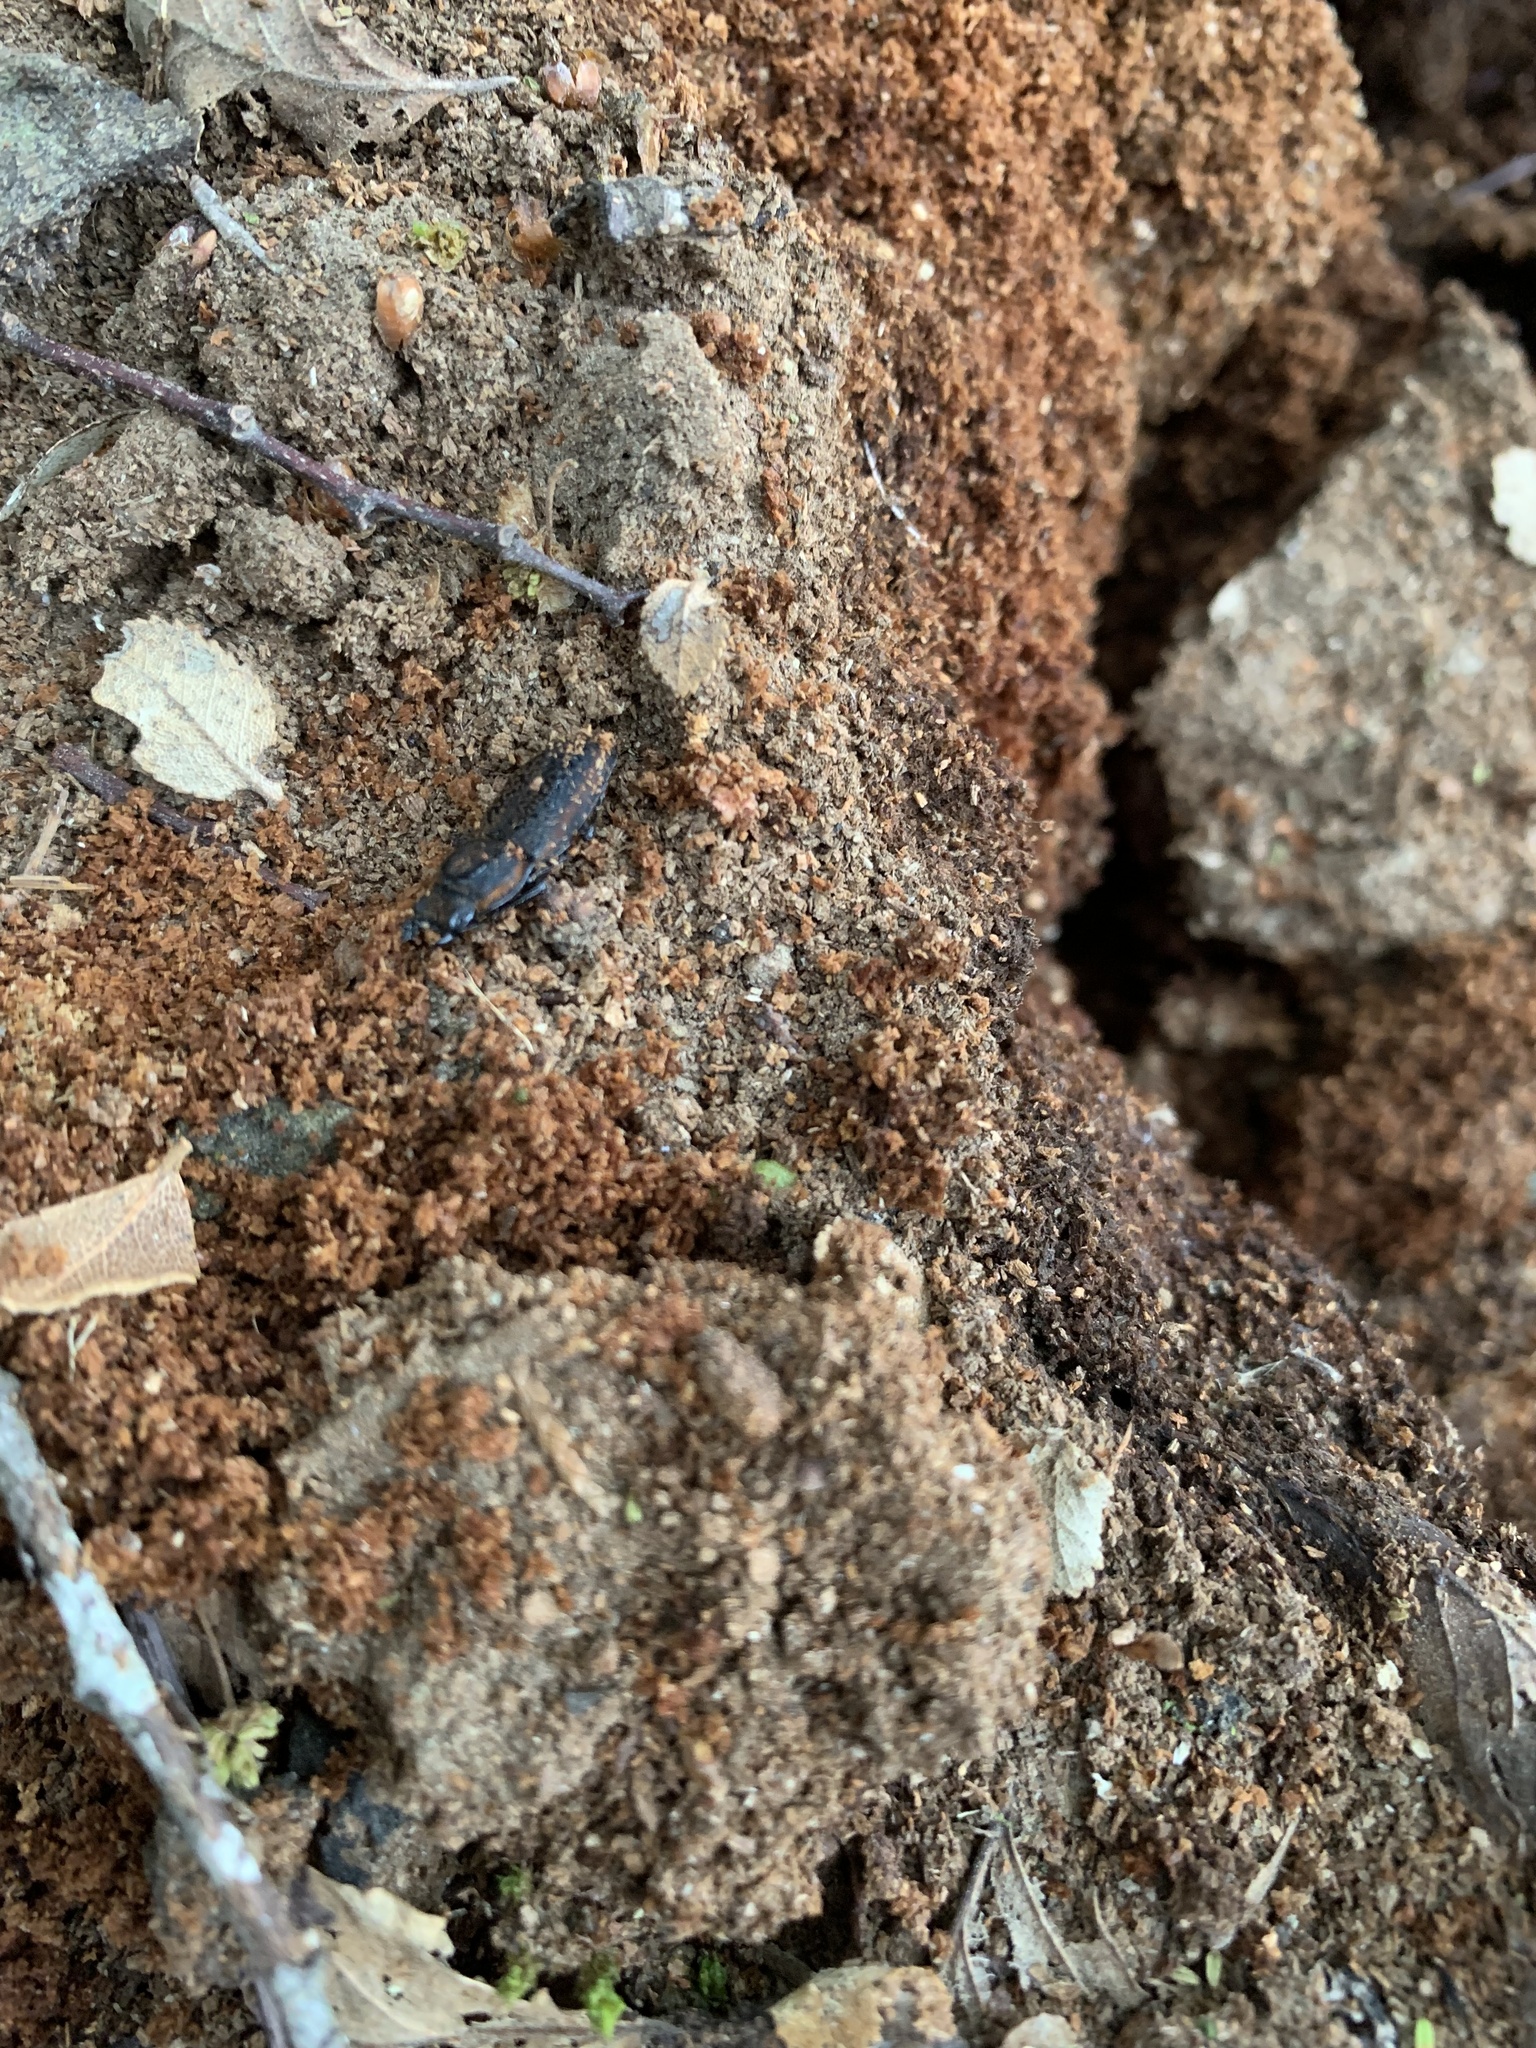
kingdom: Animalia
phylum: Arthropoda
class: Insecta
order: Coleoptera
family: Lucanidae
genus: Pycnosiphorus
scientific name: Pycnosiphorus lessonii
